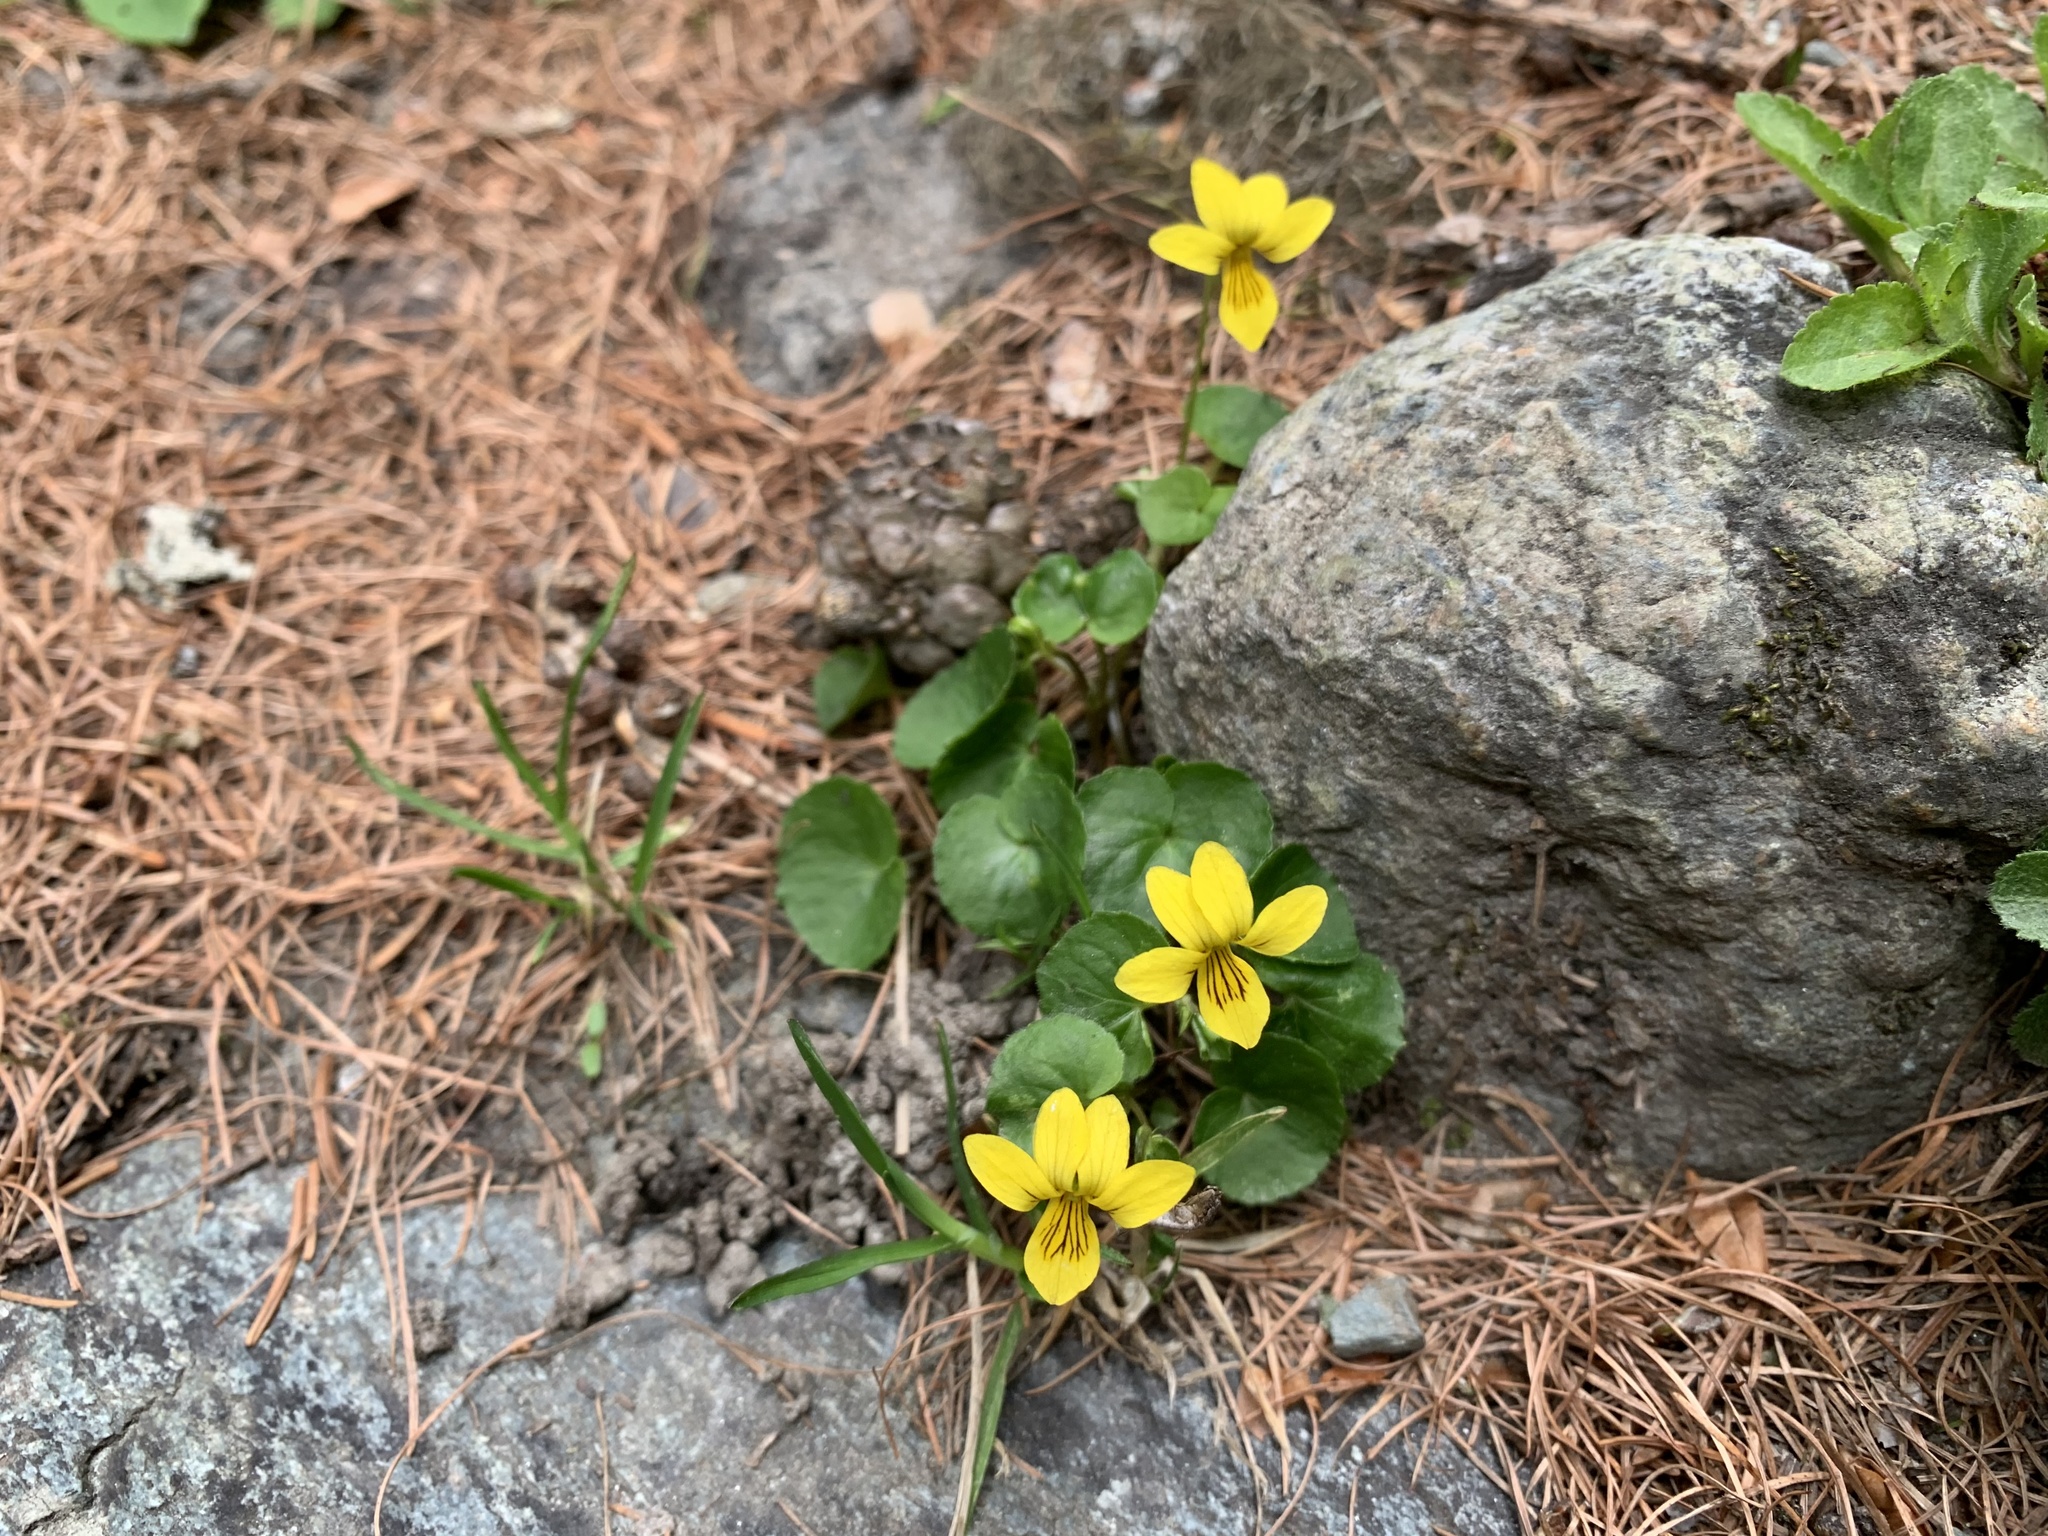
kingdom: Plantae
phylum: Tracheophyta
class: Magnoliopsida
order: Malpighiales
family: Violaceae
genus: Viola
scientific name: Viola biflora
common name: Alpine yellow violet
